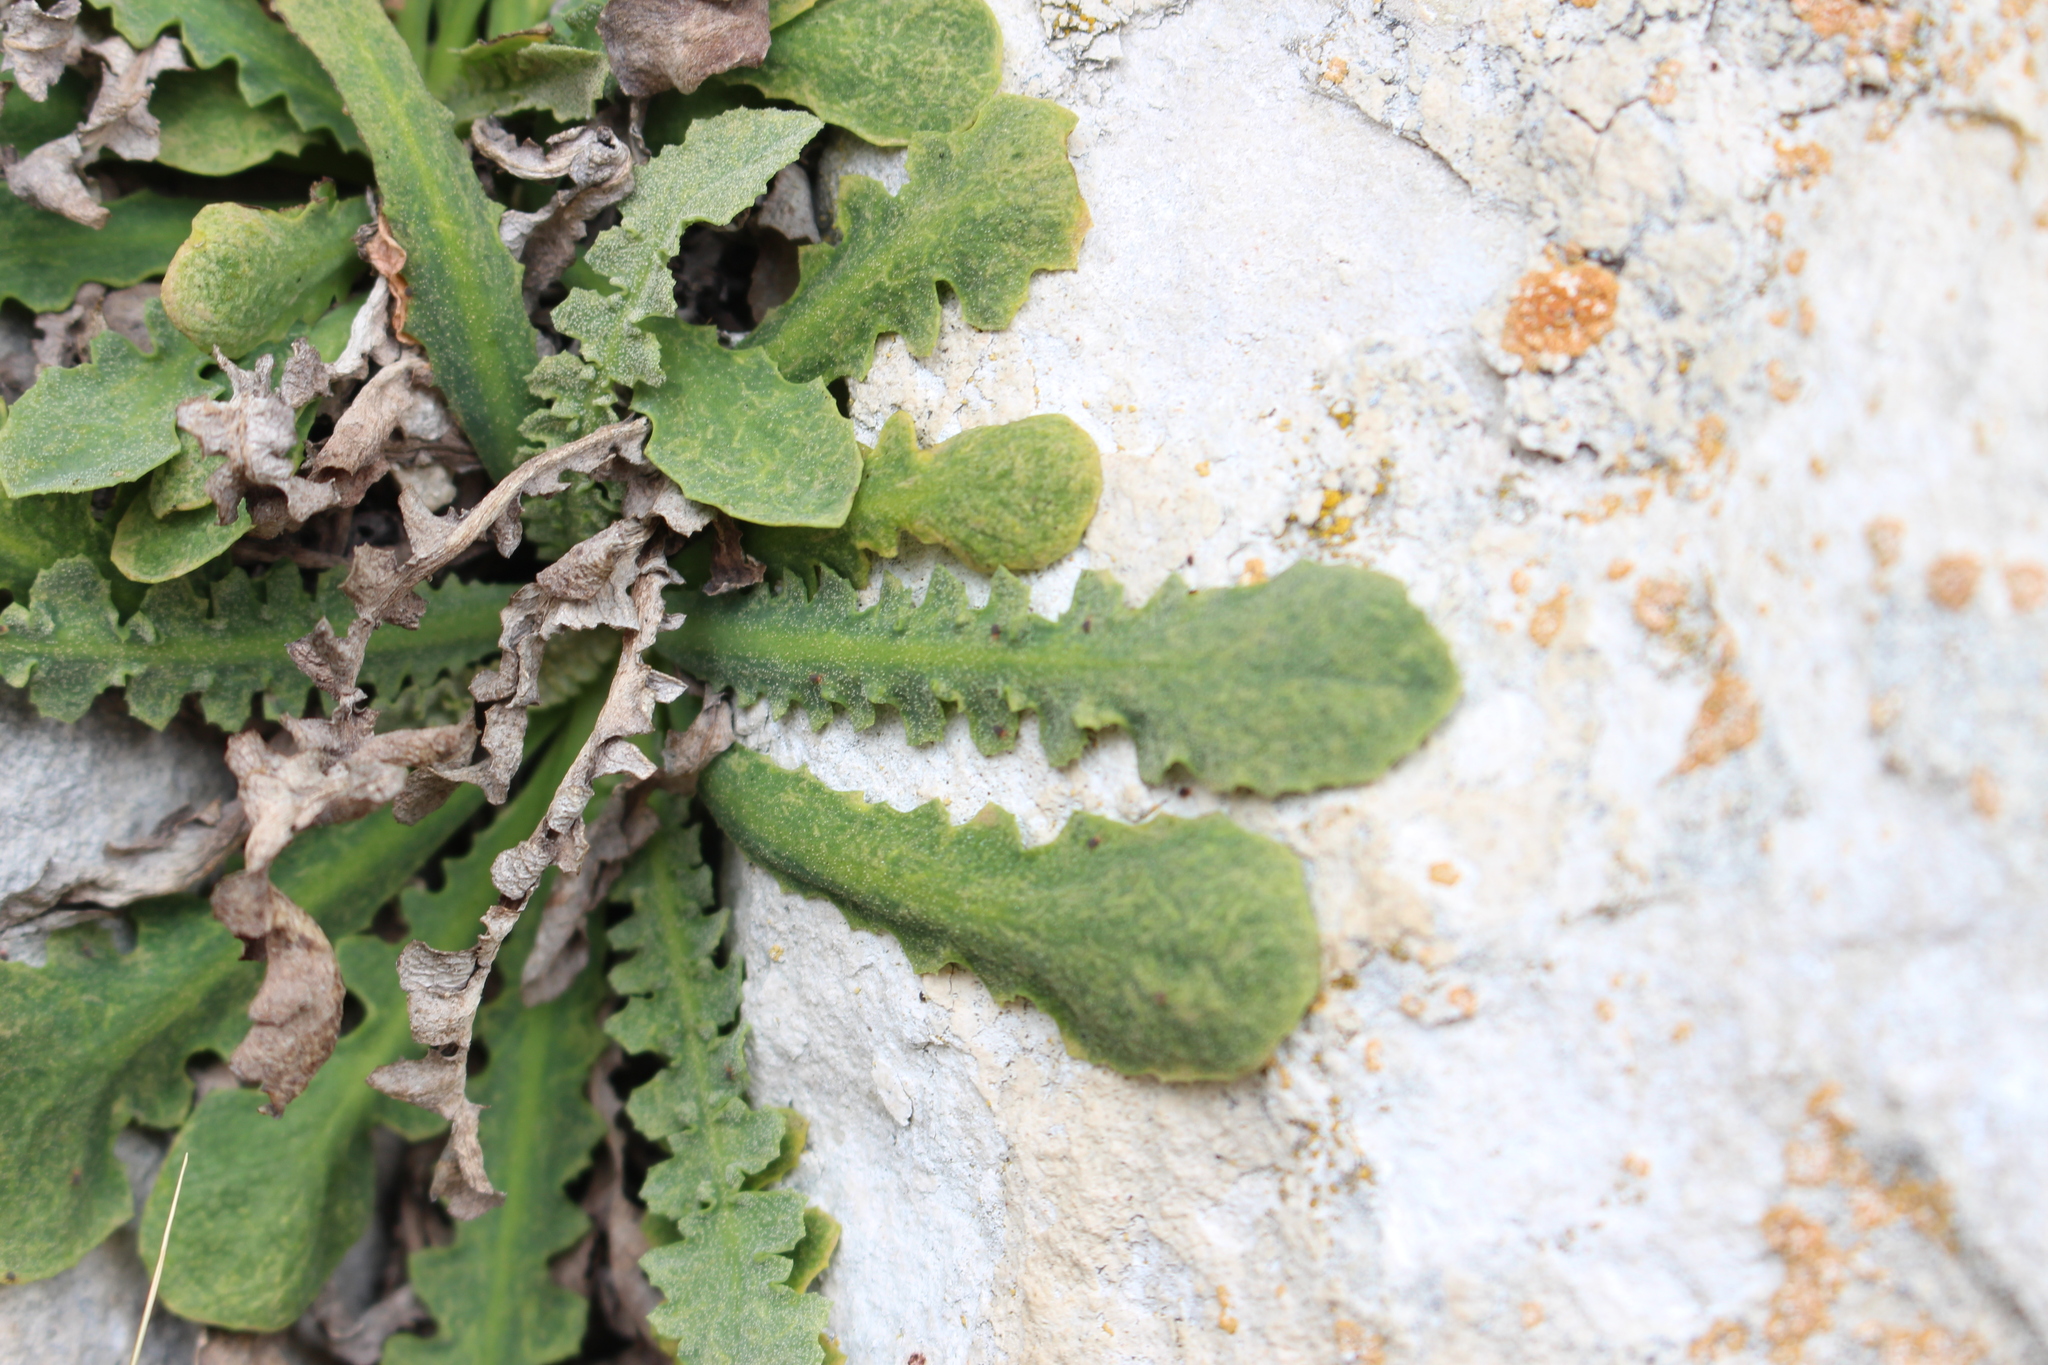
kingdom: Plantae
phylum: Tracheophyta
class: Magnoliopsida
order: Asterales
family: Asteraceae
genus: Sonchus
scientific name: Sonchus novae-zelandiae
